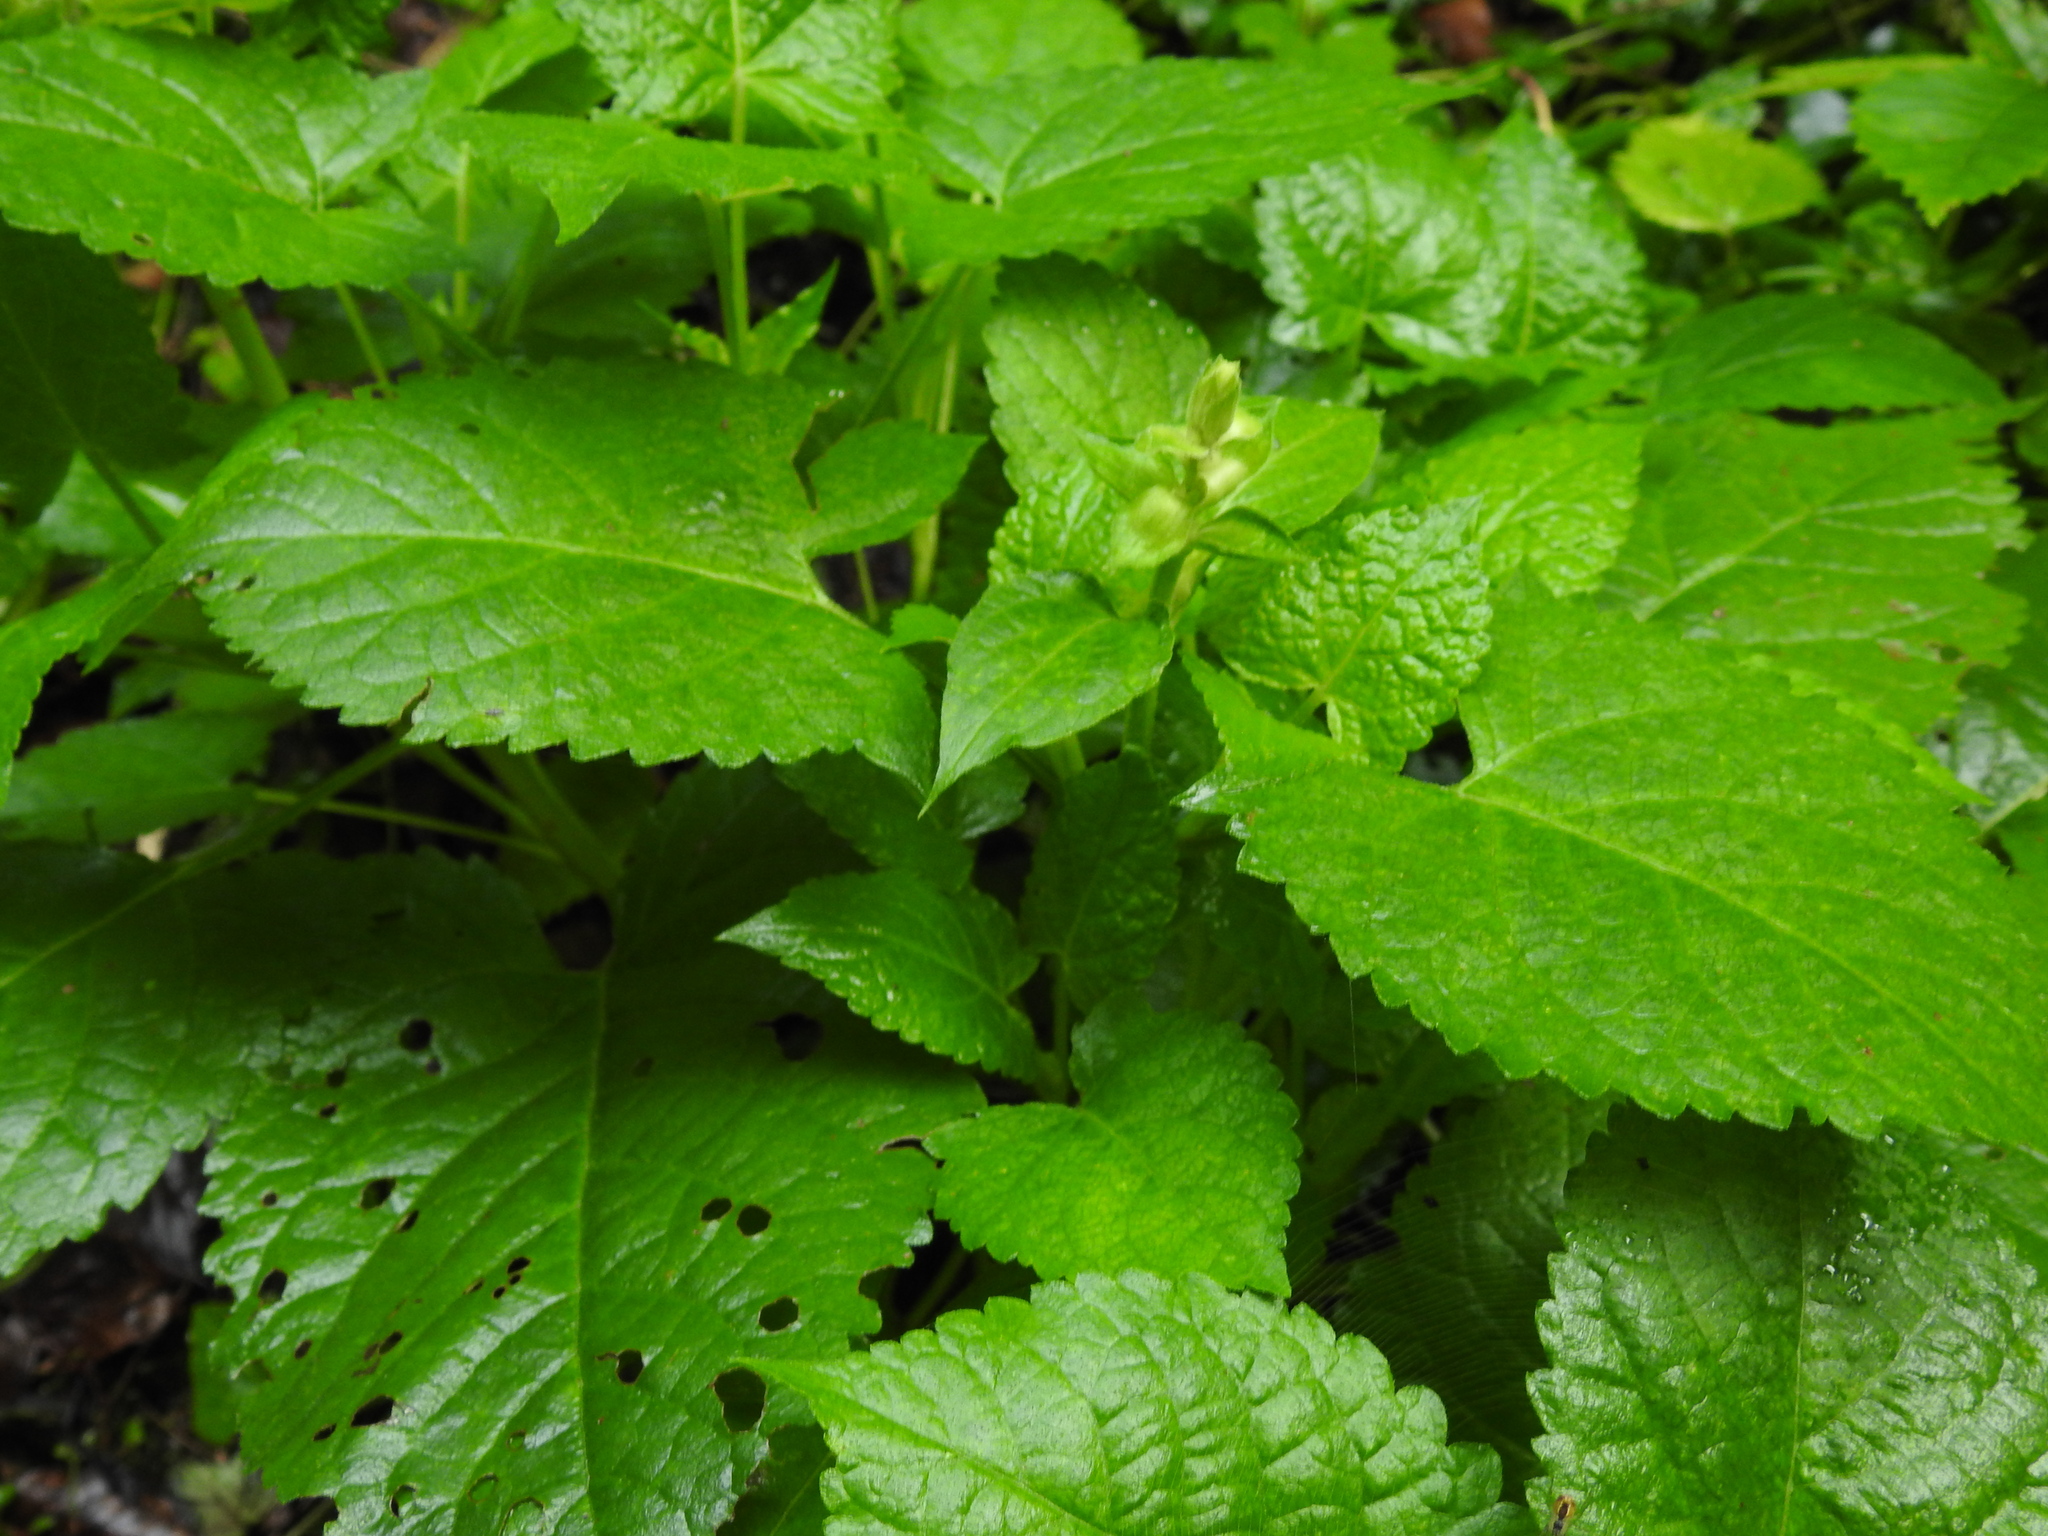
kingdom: Plantae
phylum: Tracheophyta
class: Magnoliopsida
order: Lamiales
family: Lamiaceae
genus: Salvia
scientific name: Salvia glutinosa
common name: Sticky clary
